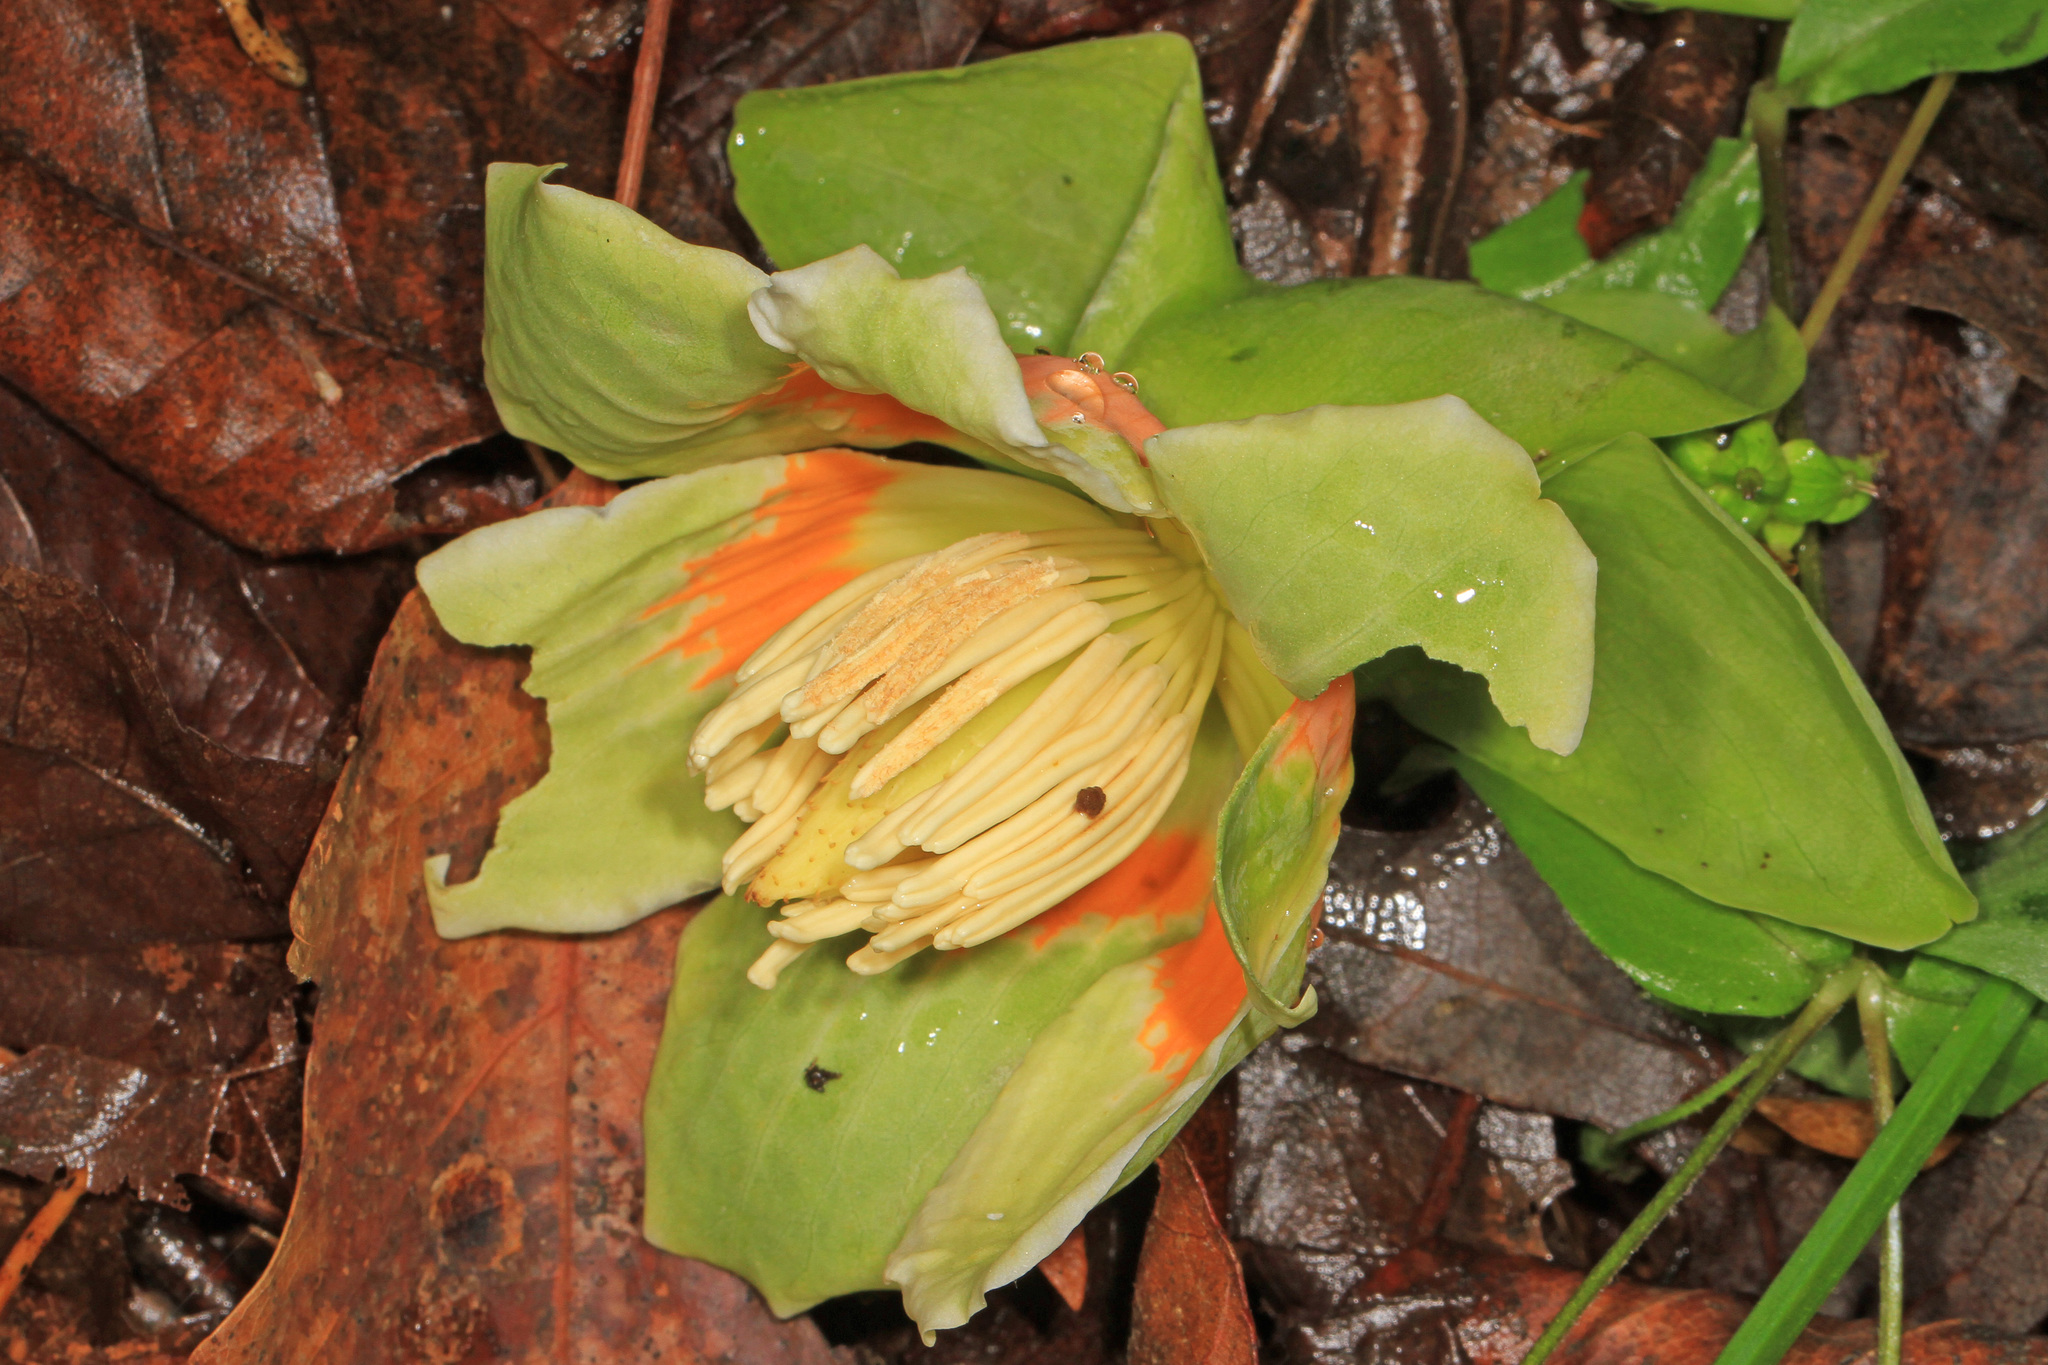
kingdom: Plantae
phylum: Tracheophyta
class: Magnoliopsida
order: Magnoliales
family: Magnoliaceae
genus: Liriodendron
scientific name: Liriodendron tulipifera
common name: Tulip tree
